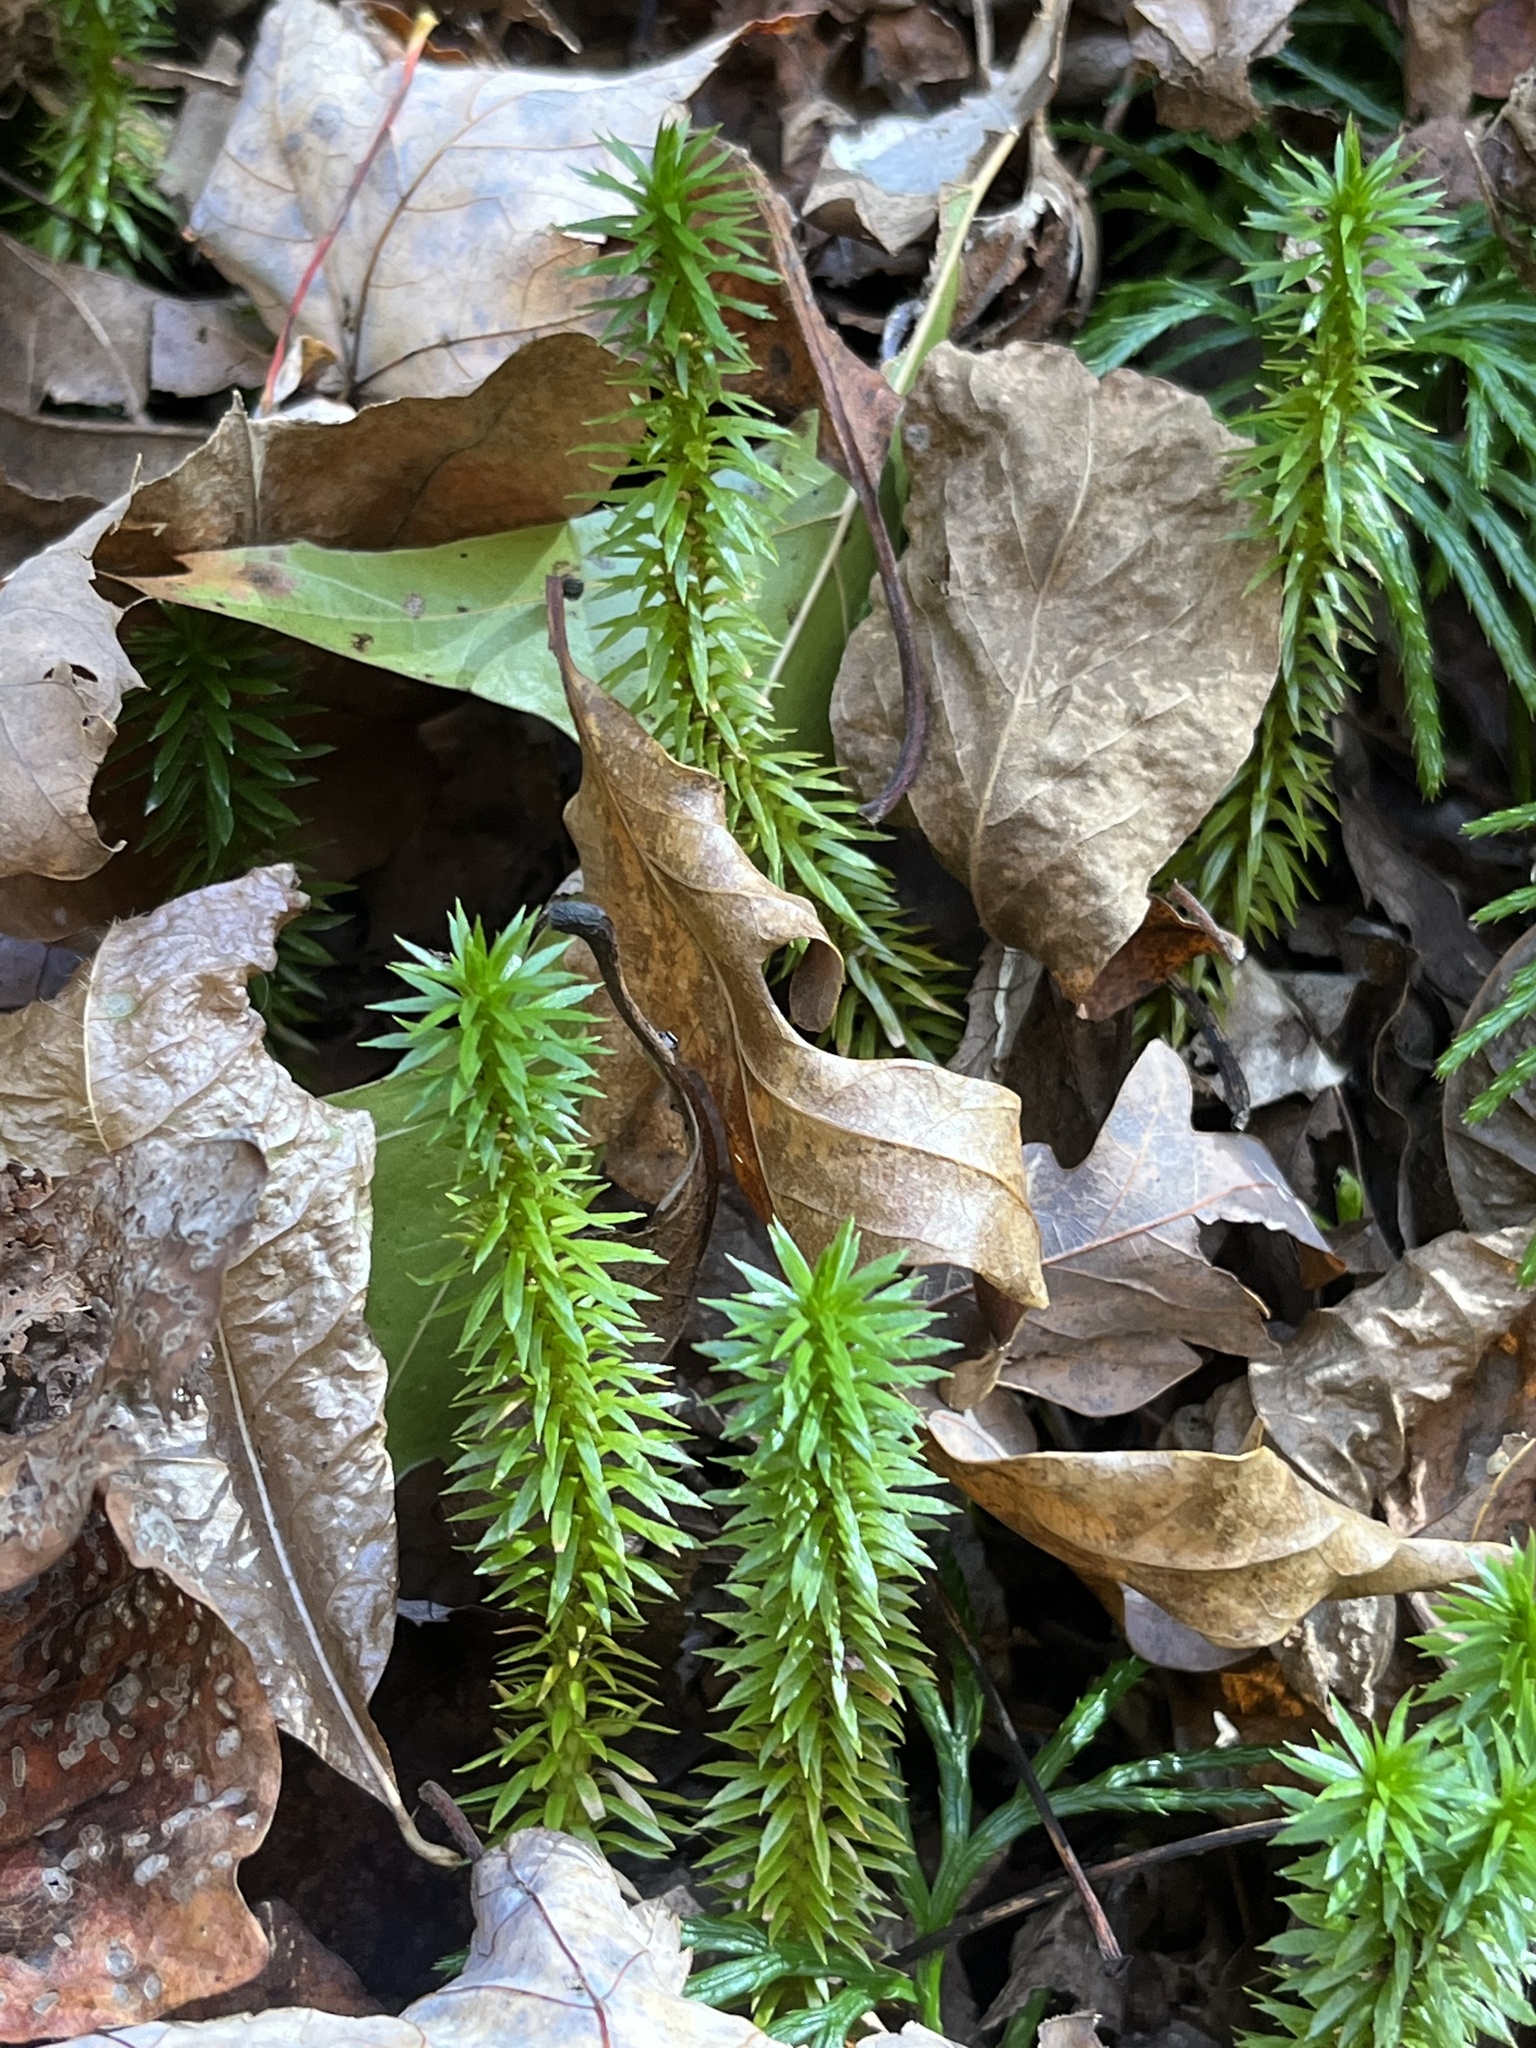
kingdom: Plantae
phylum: Tracheophyta
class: Lycopodiopsida
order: Lycopodiales
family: Lycopodiaceae
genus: Huperzia
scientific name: Huperzia lucidula
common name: Shining clubmoss
